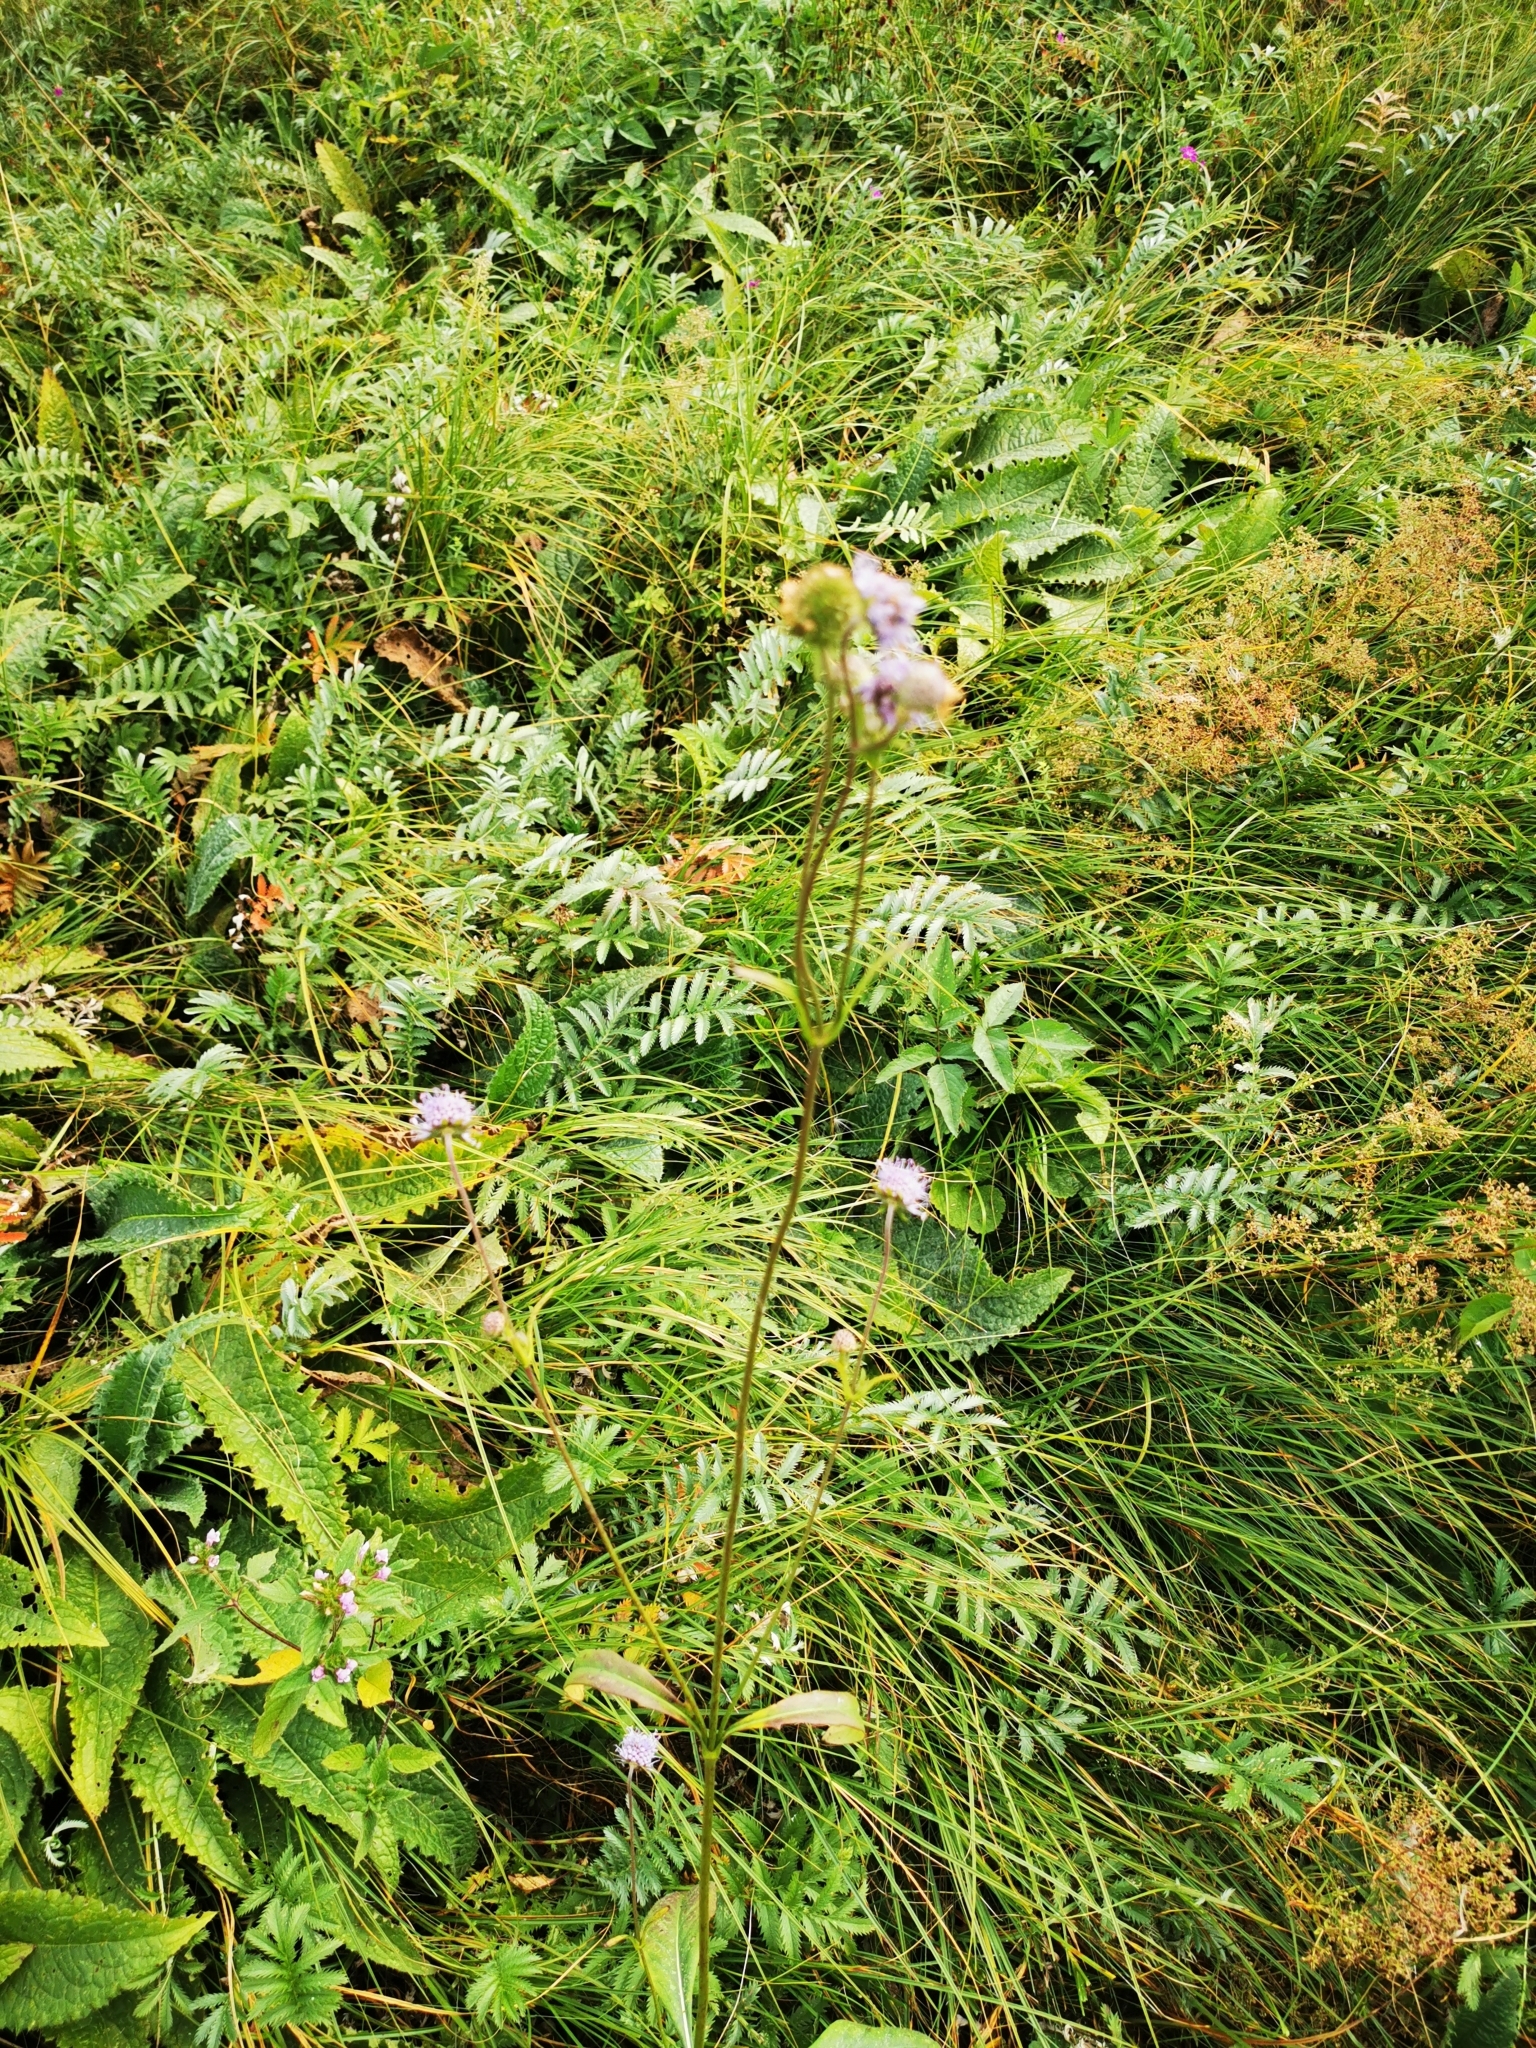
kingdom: Plantae
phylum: Tracheophyta
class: Magnoliopsida
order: Dipsacales
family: Caprifoliaceae
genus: Succisa
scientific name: Succisa pratensis
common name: Devil's-bit
